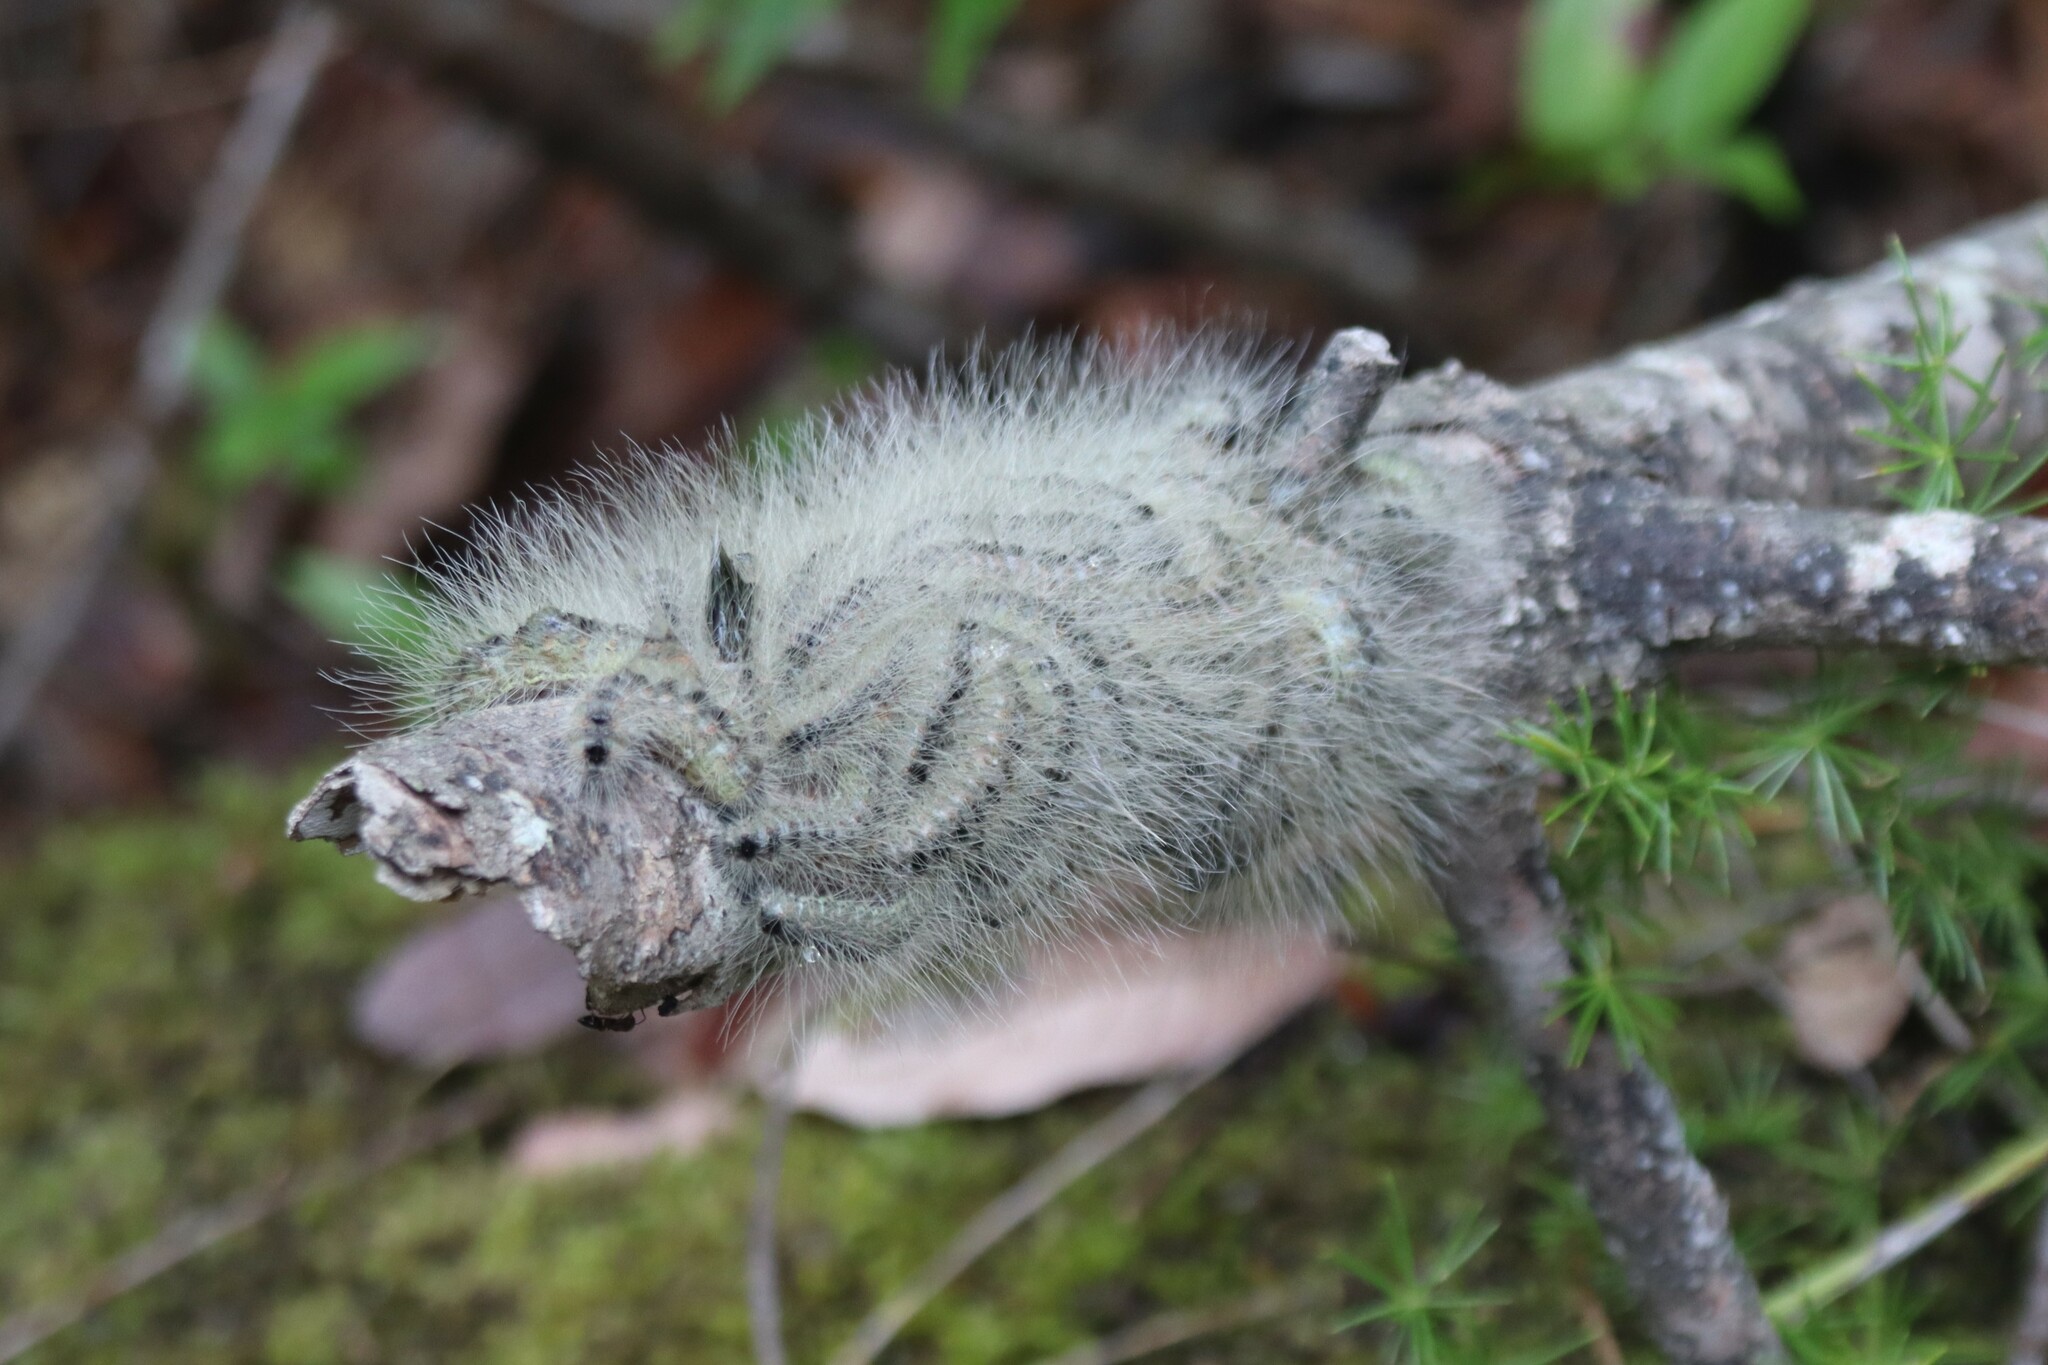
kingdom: Animalia
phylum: Arthropoda
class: Insecta
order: Lepidoptera
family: Notodontidae
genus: Thaumetopoea
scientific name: Thaumetopoea solitaria
